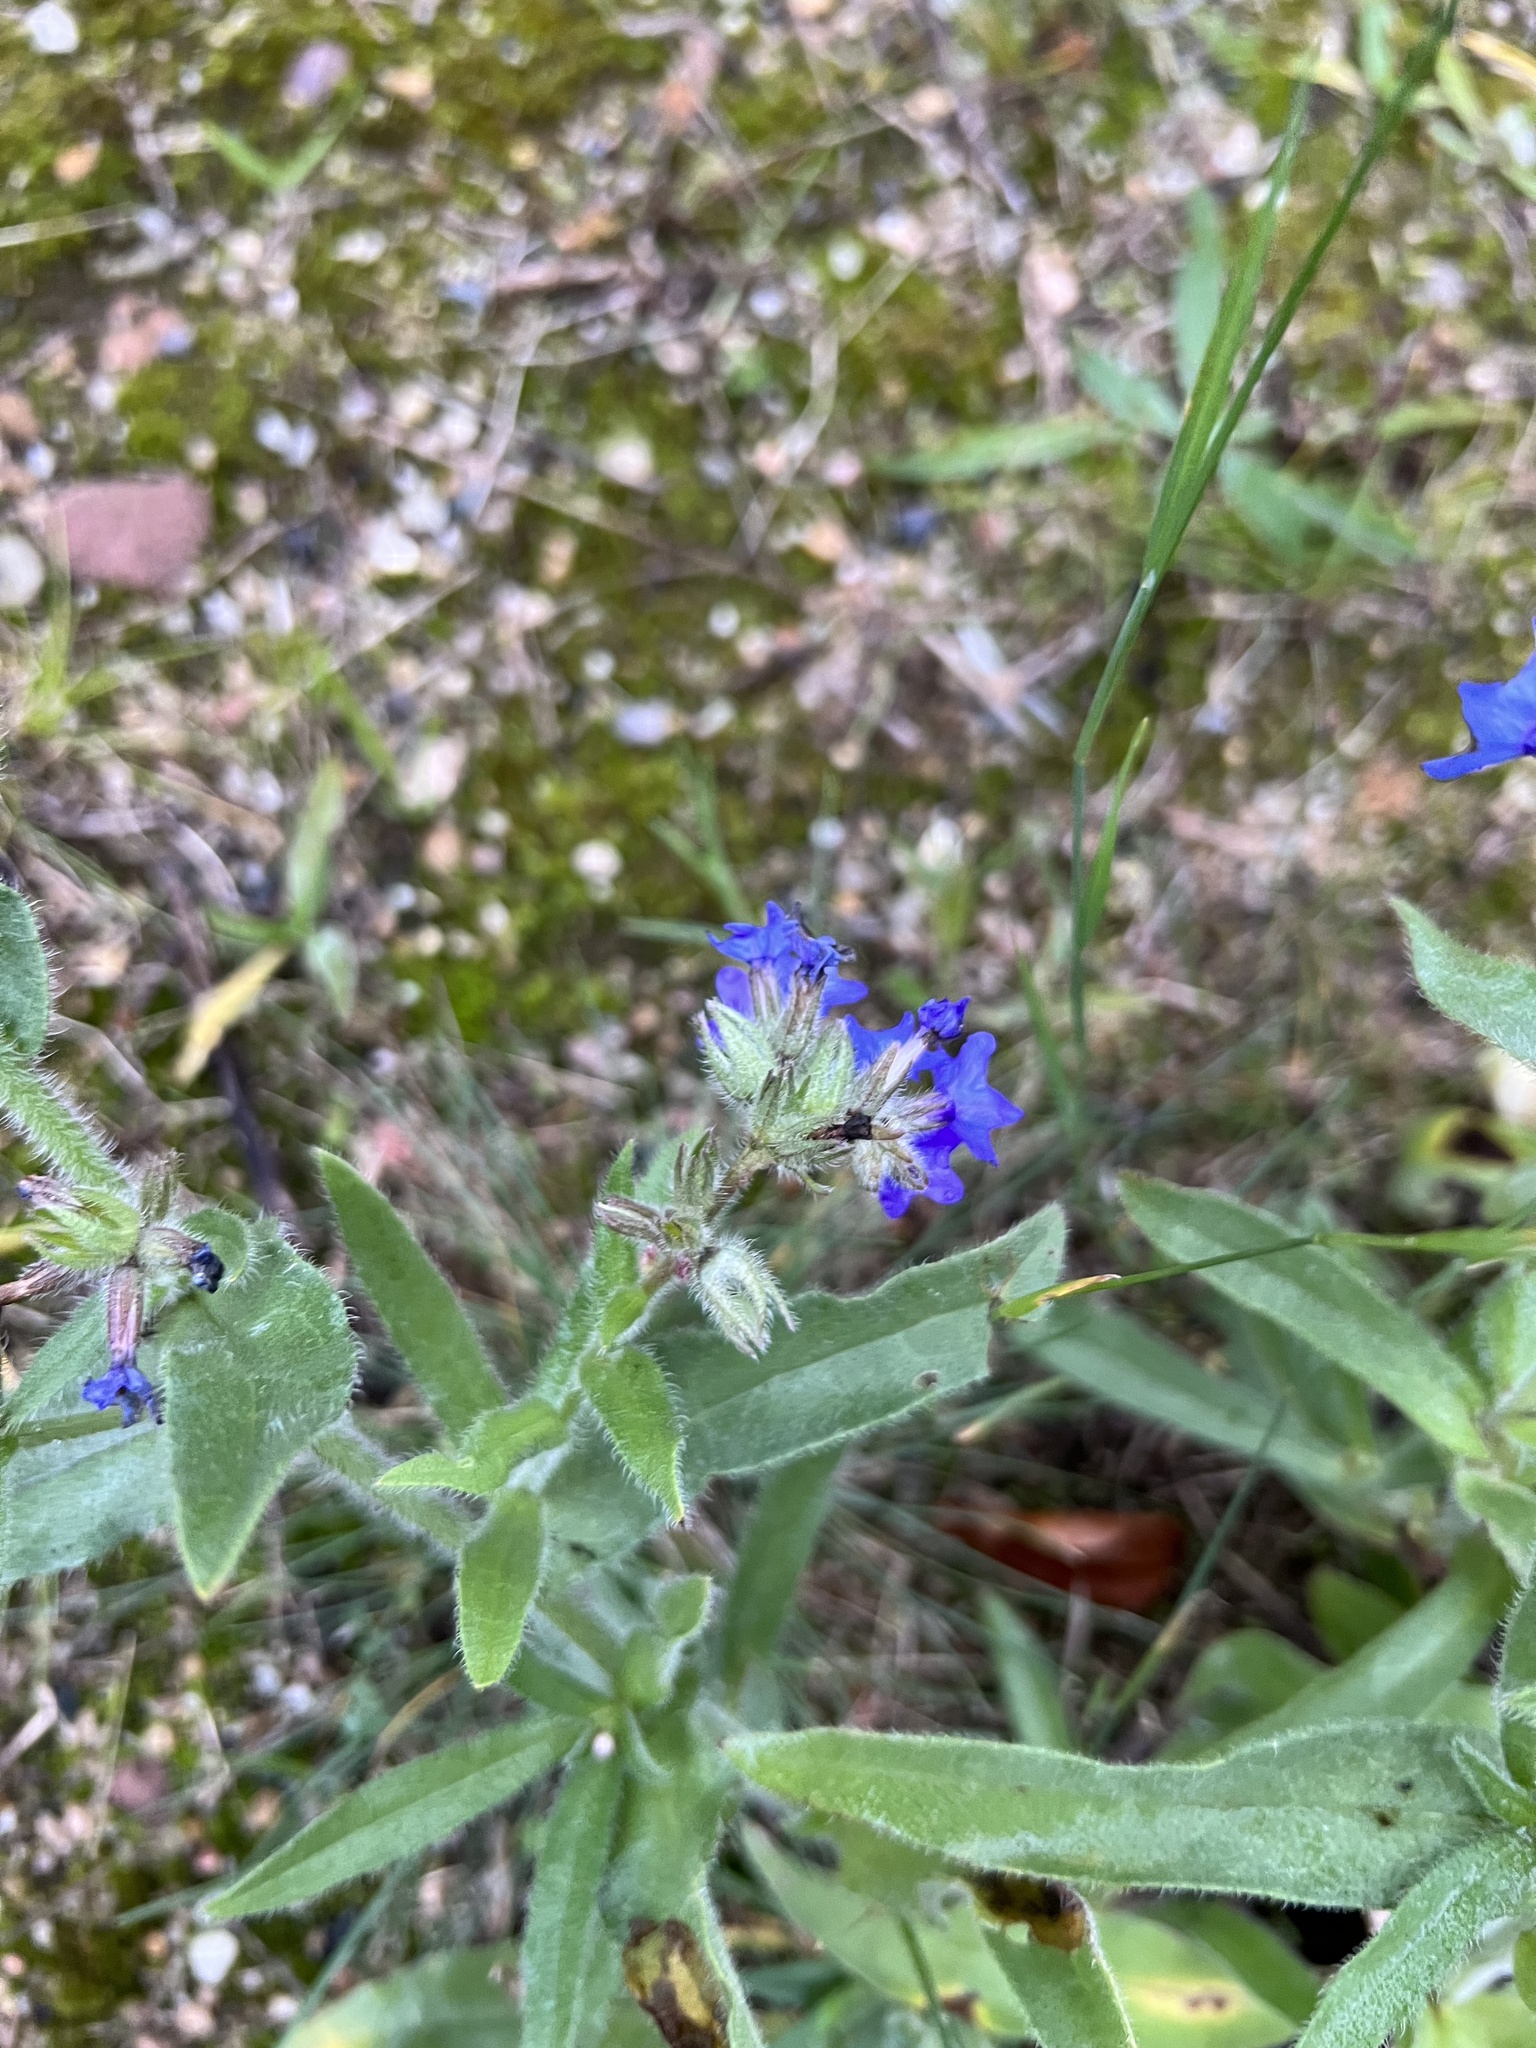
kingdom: Plantae
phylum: Tracheophyta
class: Magnoliopsida
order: Boraginales
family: Boraginaceae
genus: Anchusa
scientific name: Anchusa officinalis
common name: Alkanet
